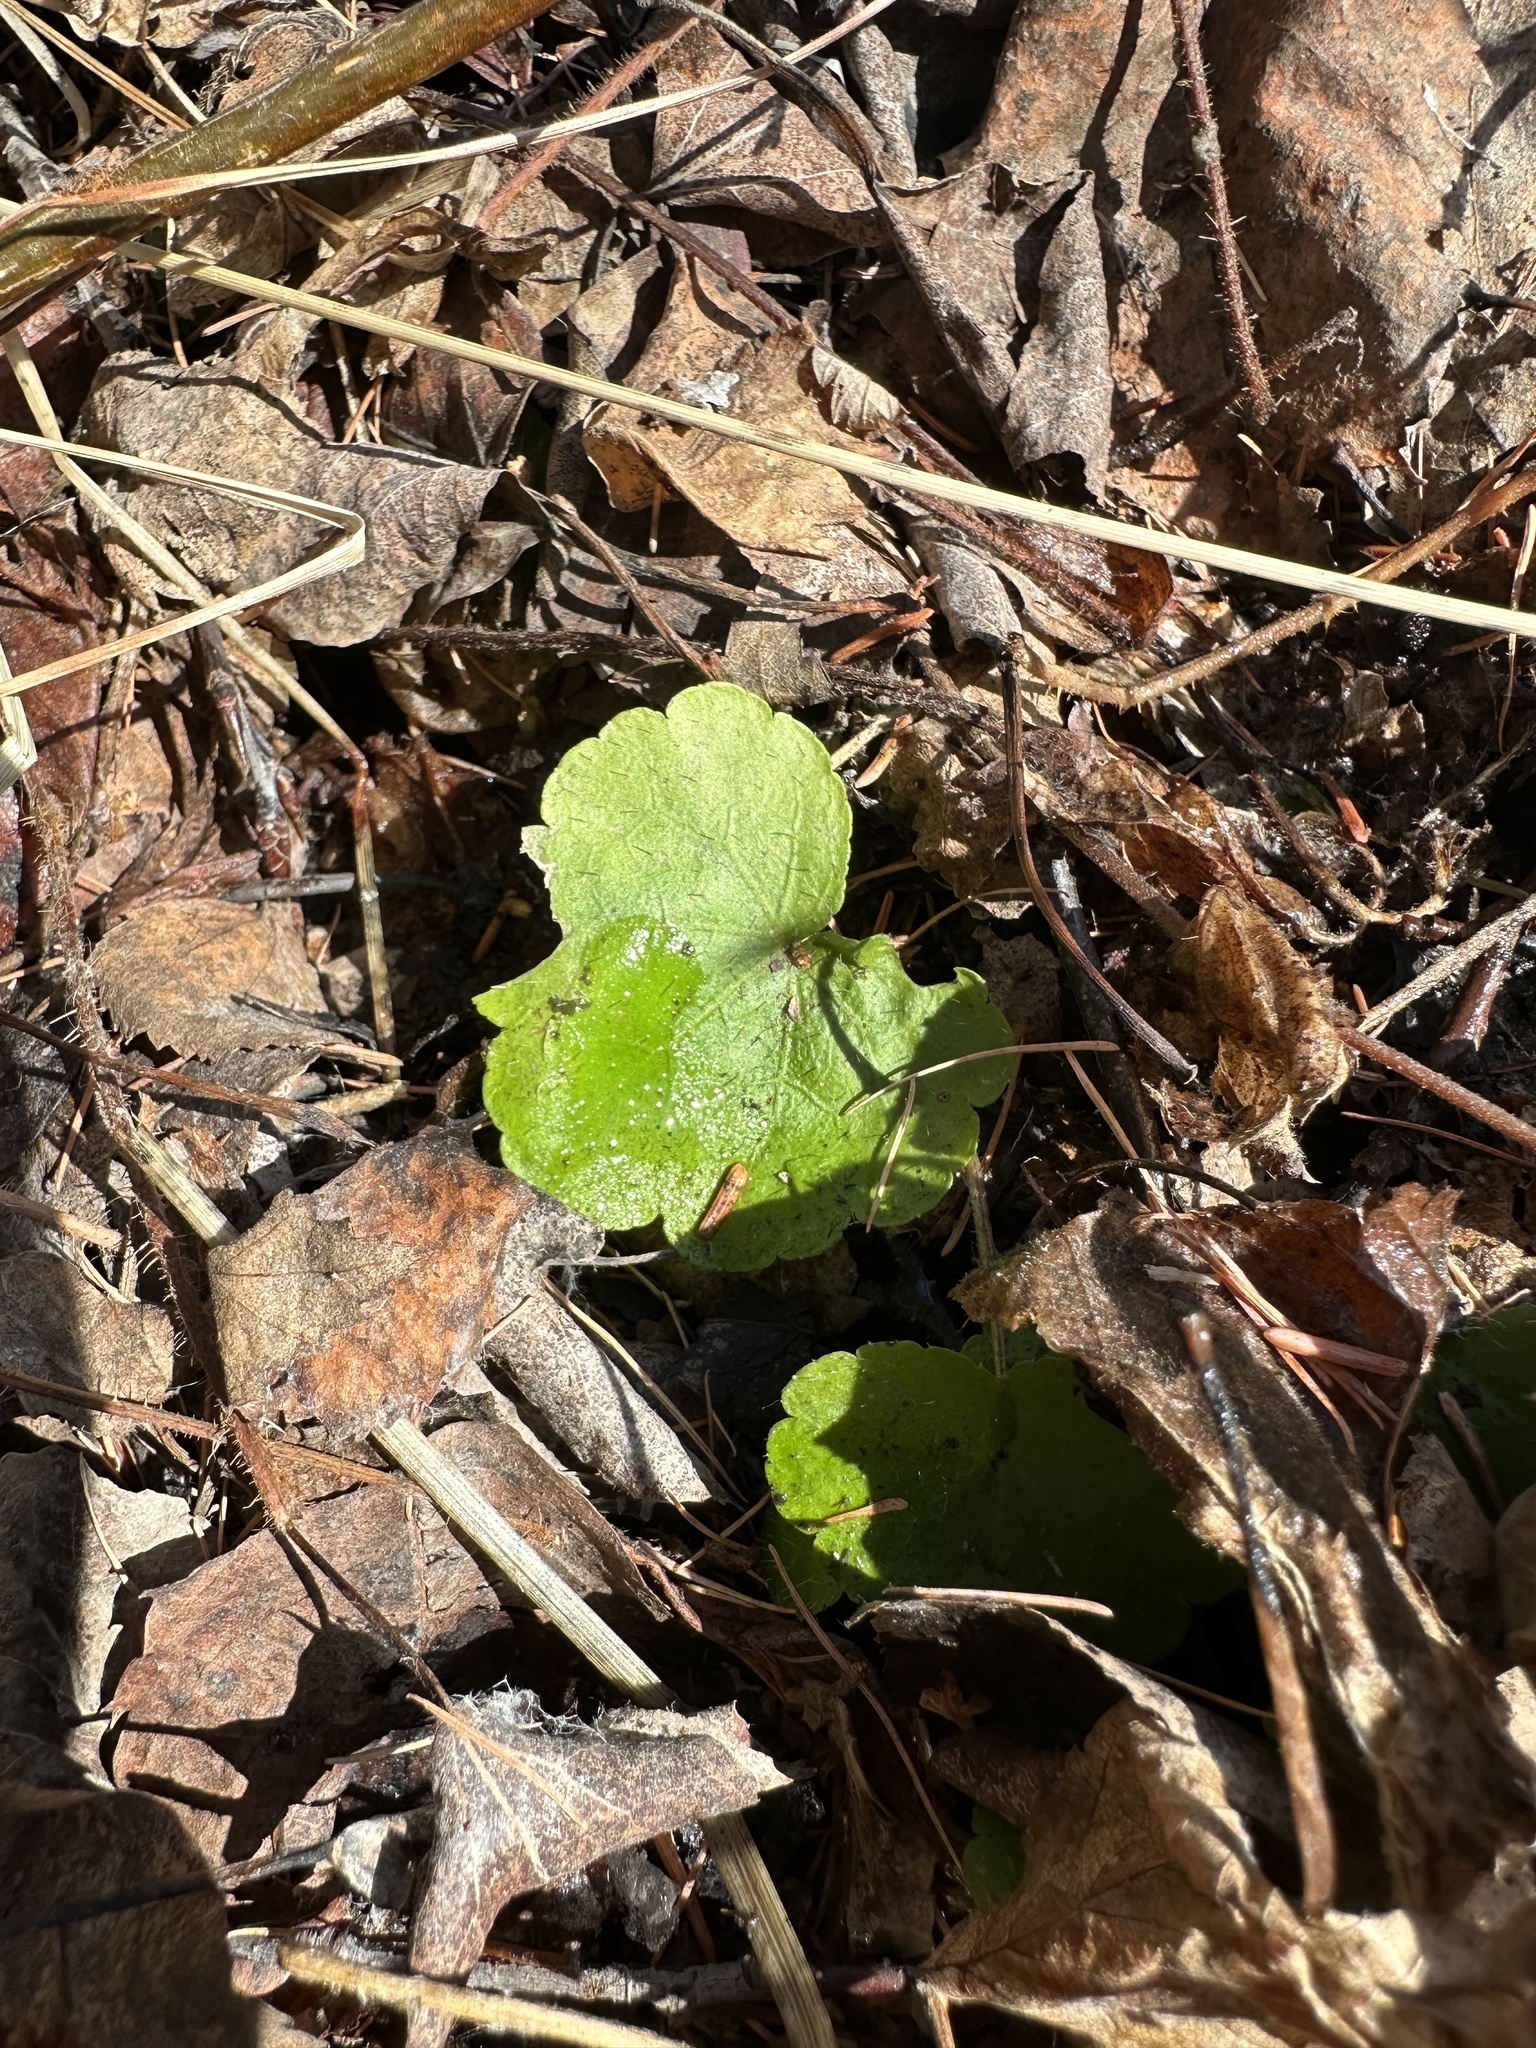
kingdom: Plantae
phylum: Tracheophyta
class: Magnoliopsida
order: Saxifragales
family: Saxifragaceae
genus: Mitella
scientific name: Mitella nuda
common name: Bare-stemmed bishop's-cap
